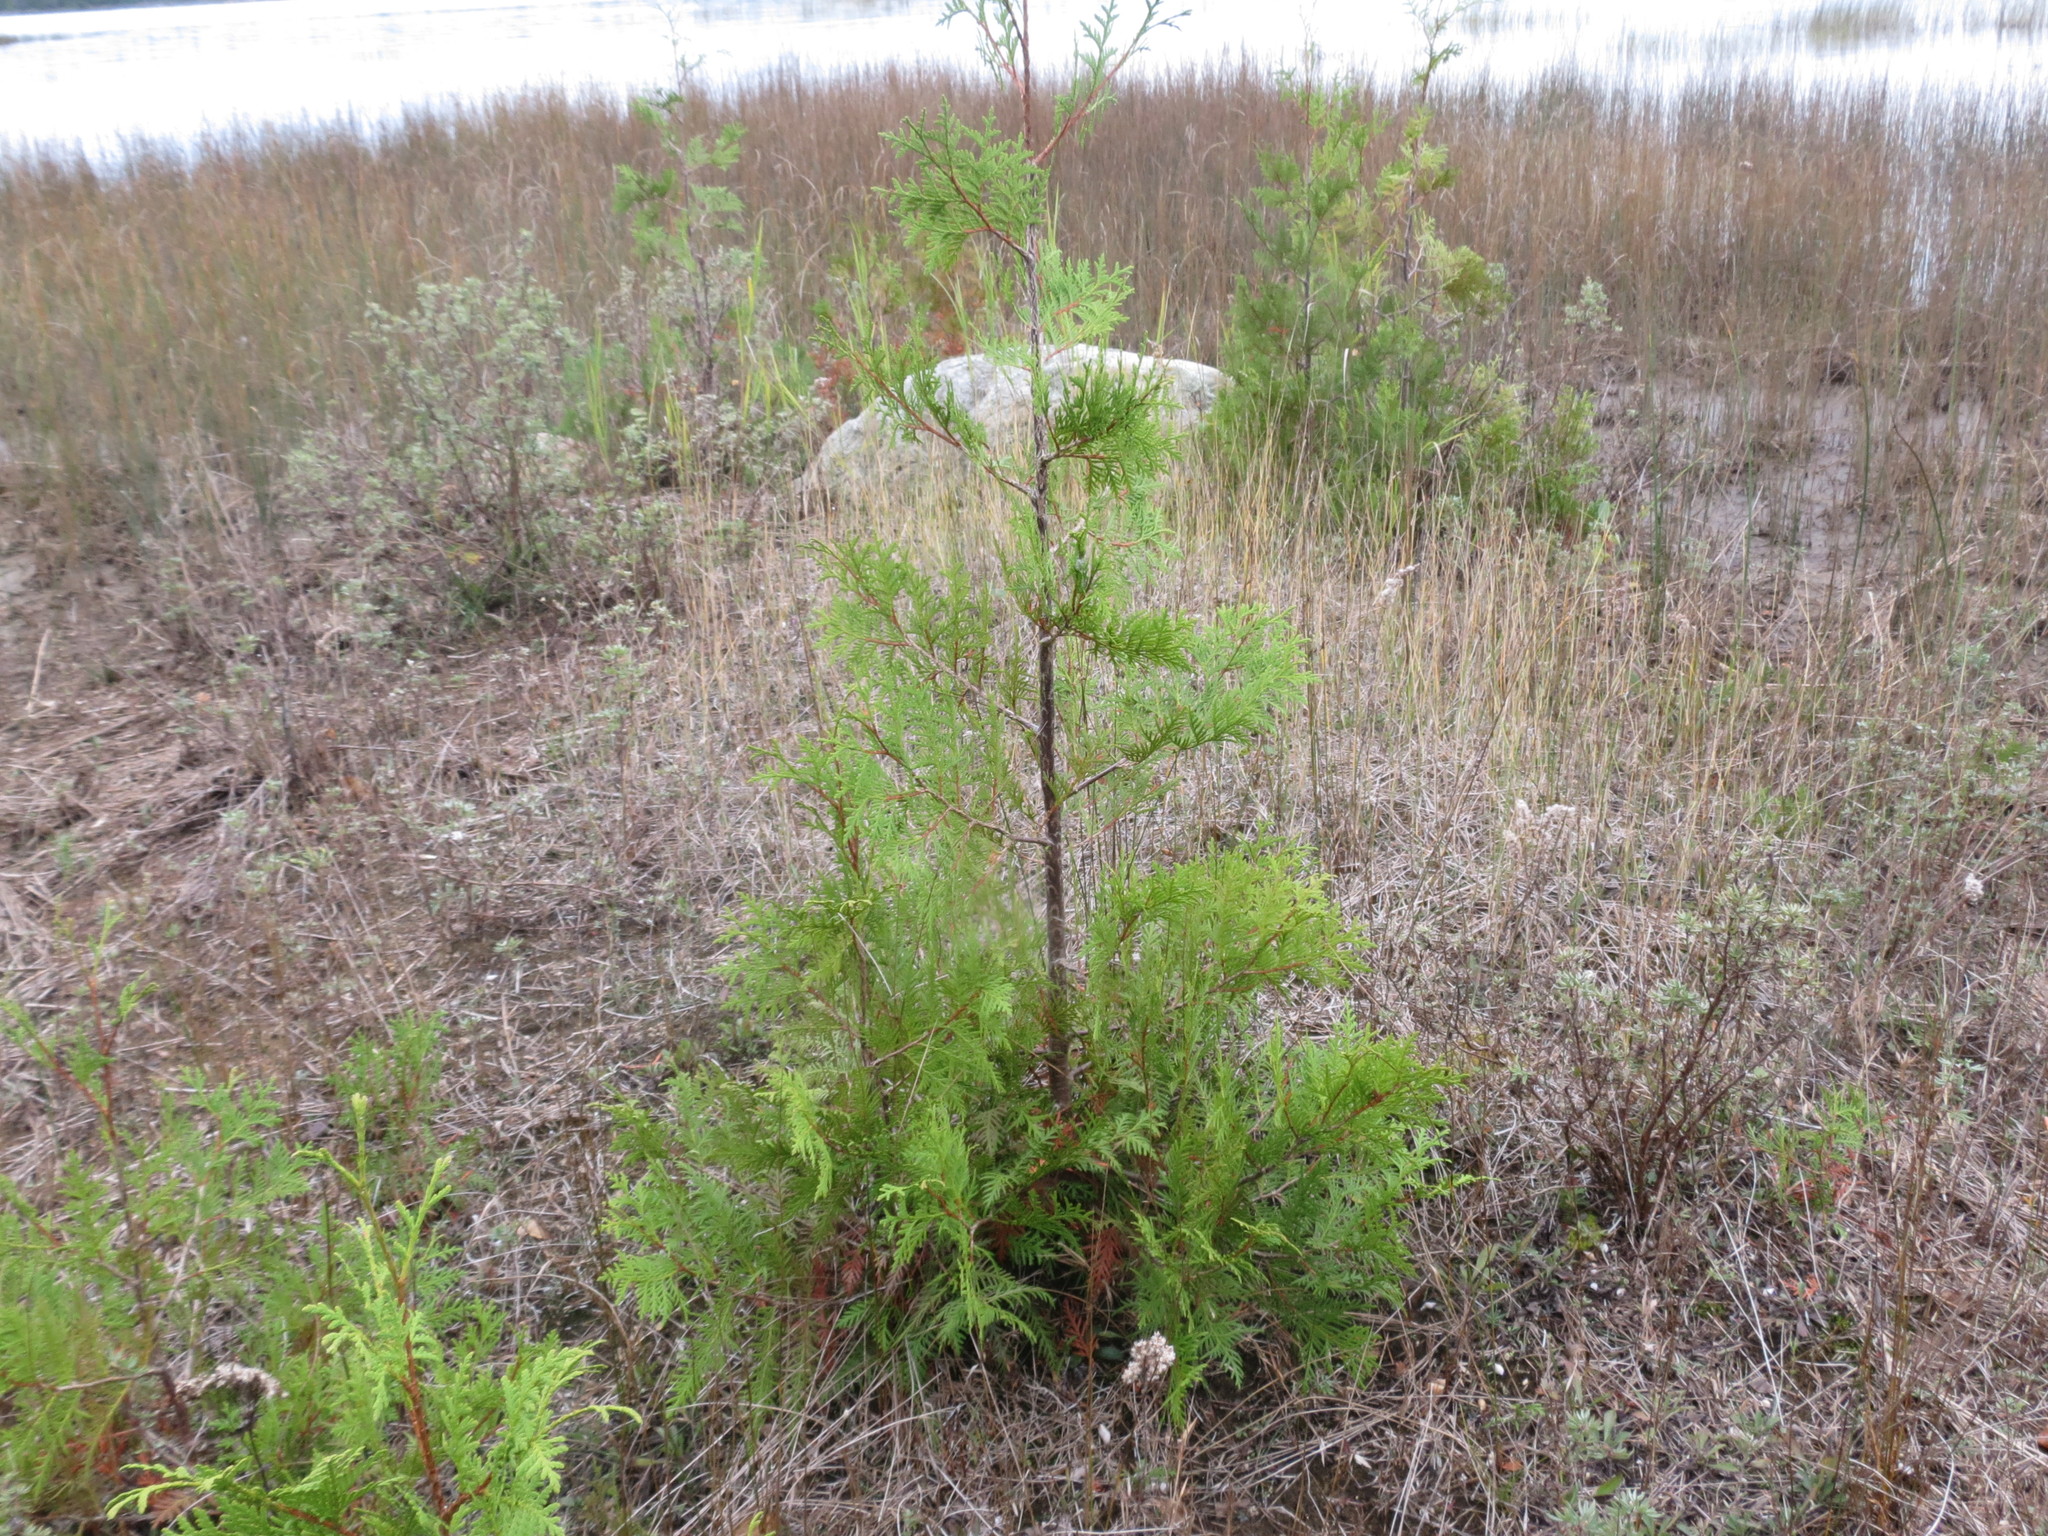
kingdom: Plantae
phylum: Tracheophyta
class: Pinopsida
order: Pinales
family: Cupressaceae
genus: Thuja
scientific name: Thuja occidentalis
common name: Northern white-cedar
